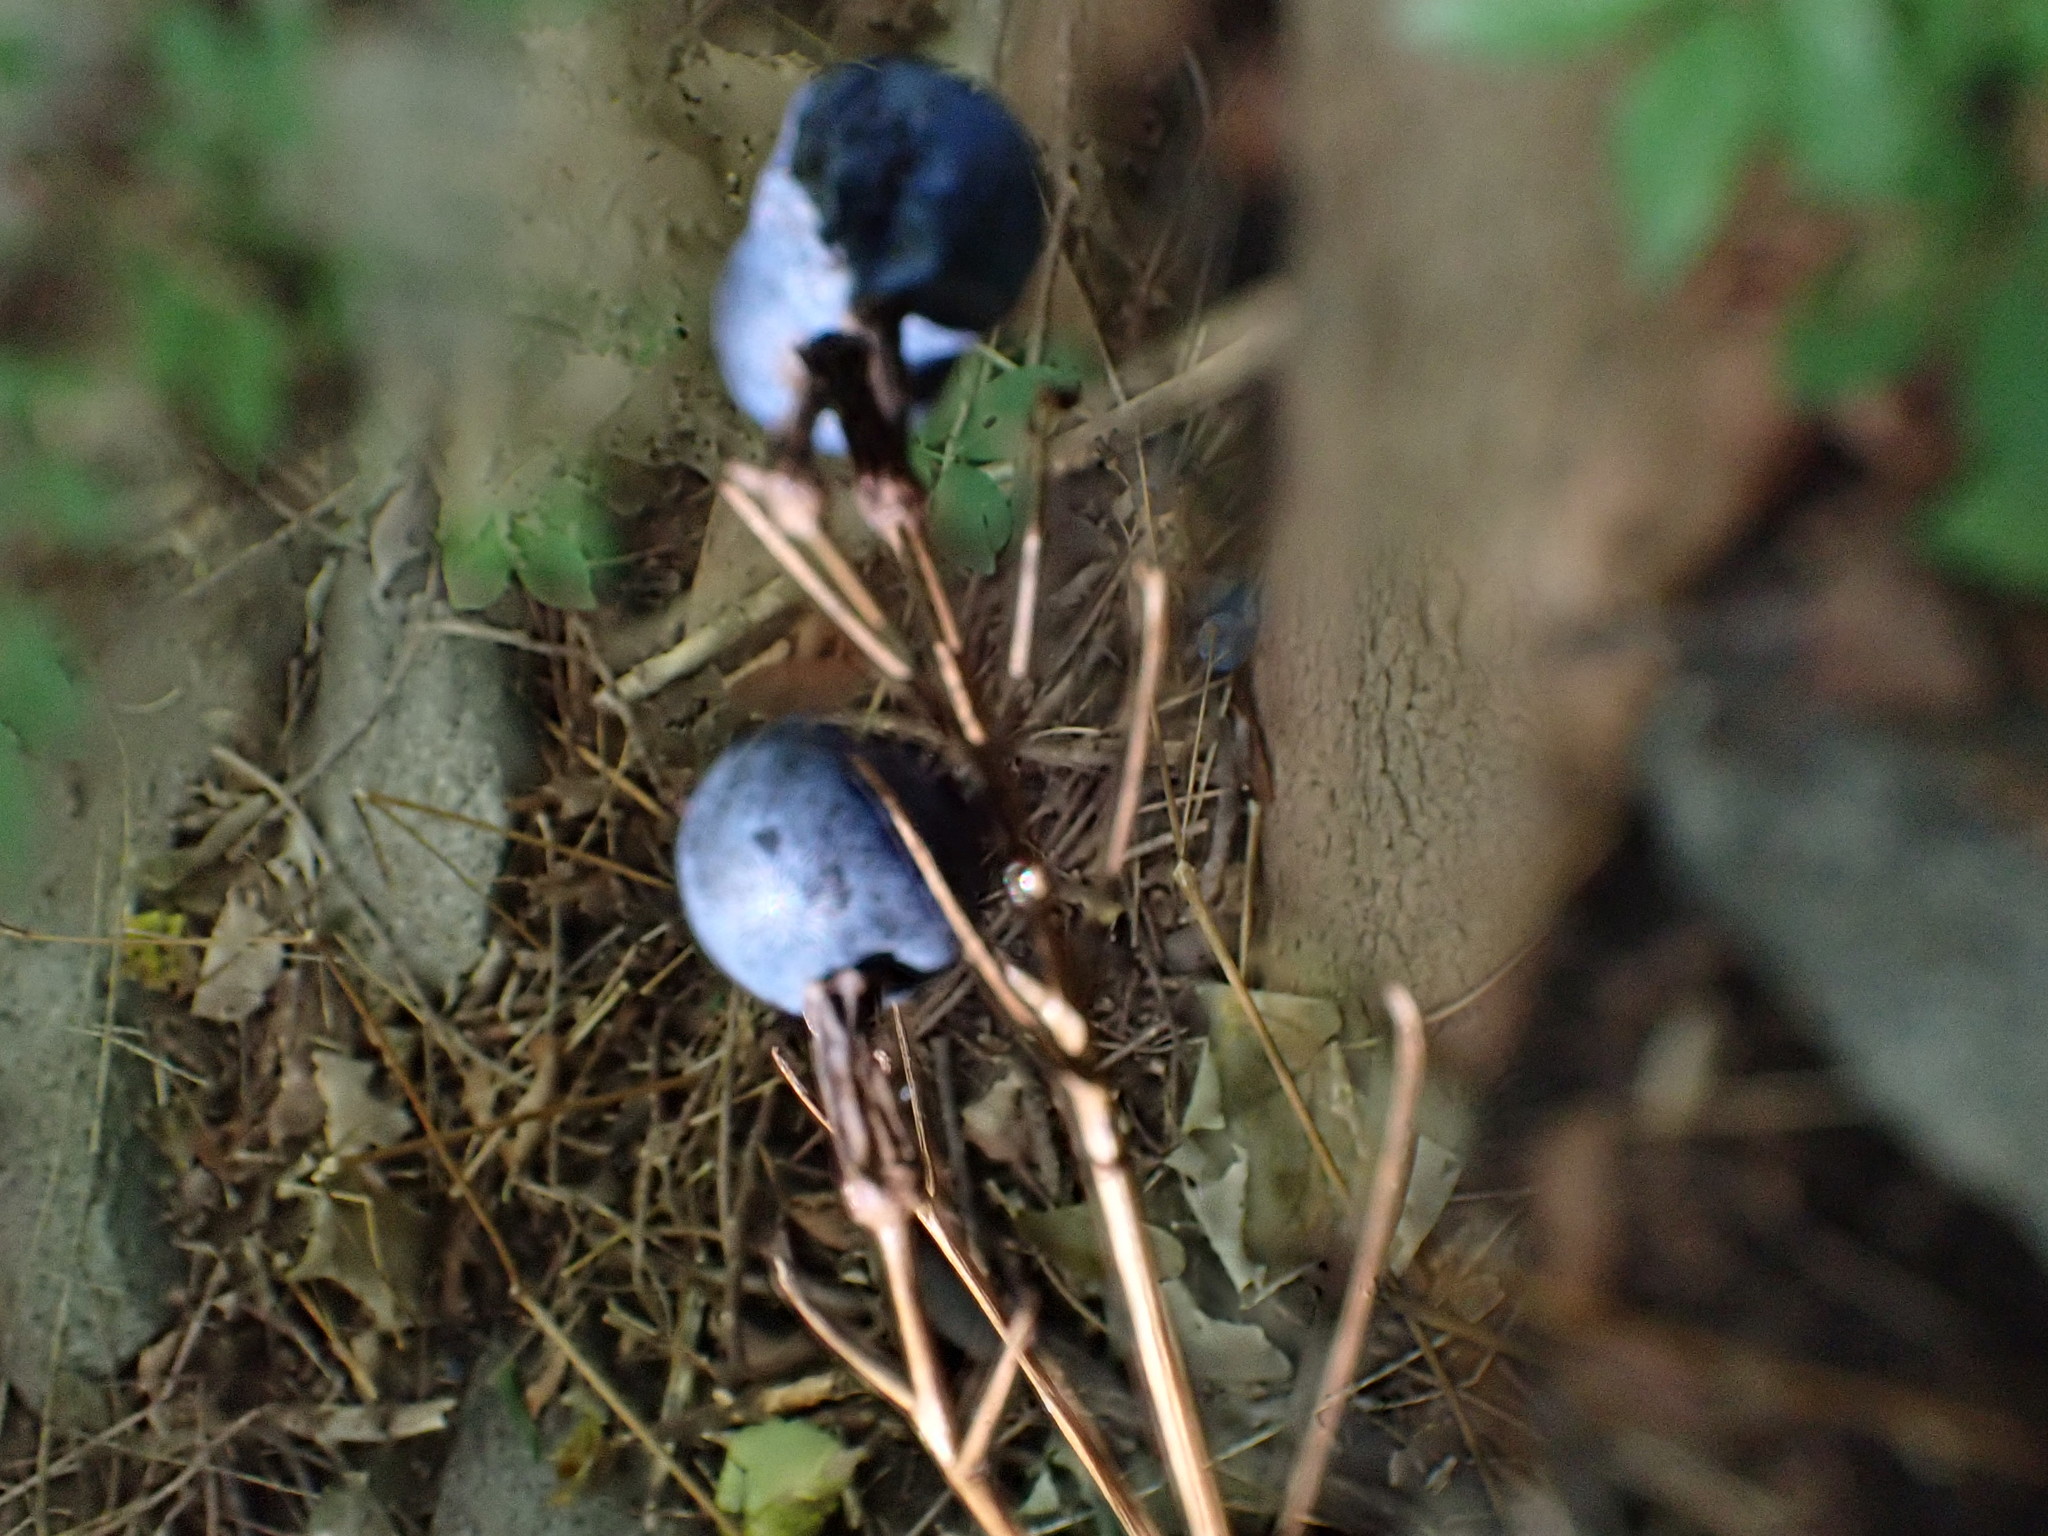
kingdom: Plantae
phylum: Tracheophyta
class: Magnoliopsida
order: Ranunculales
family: Berberidaceae
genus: Caulophyllum
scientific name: Caulophyllum thalictroides
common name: Blue cohosh
